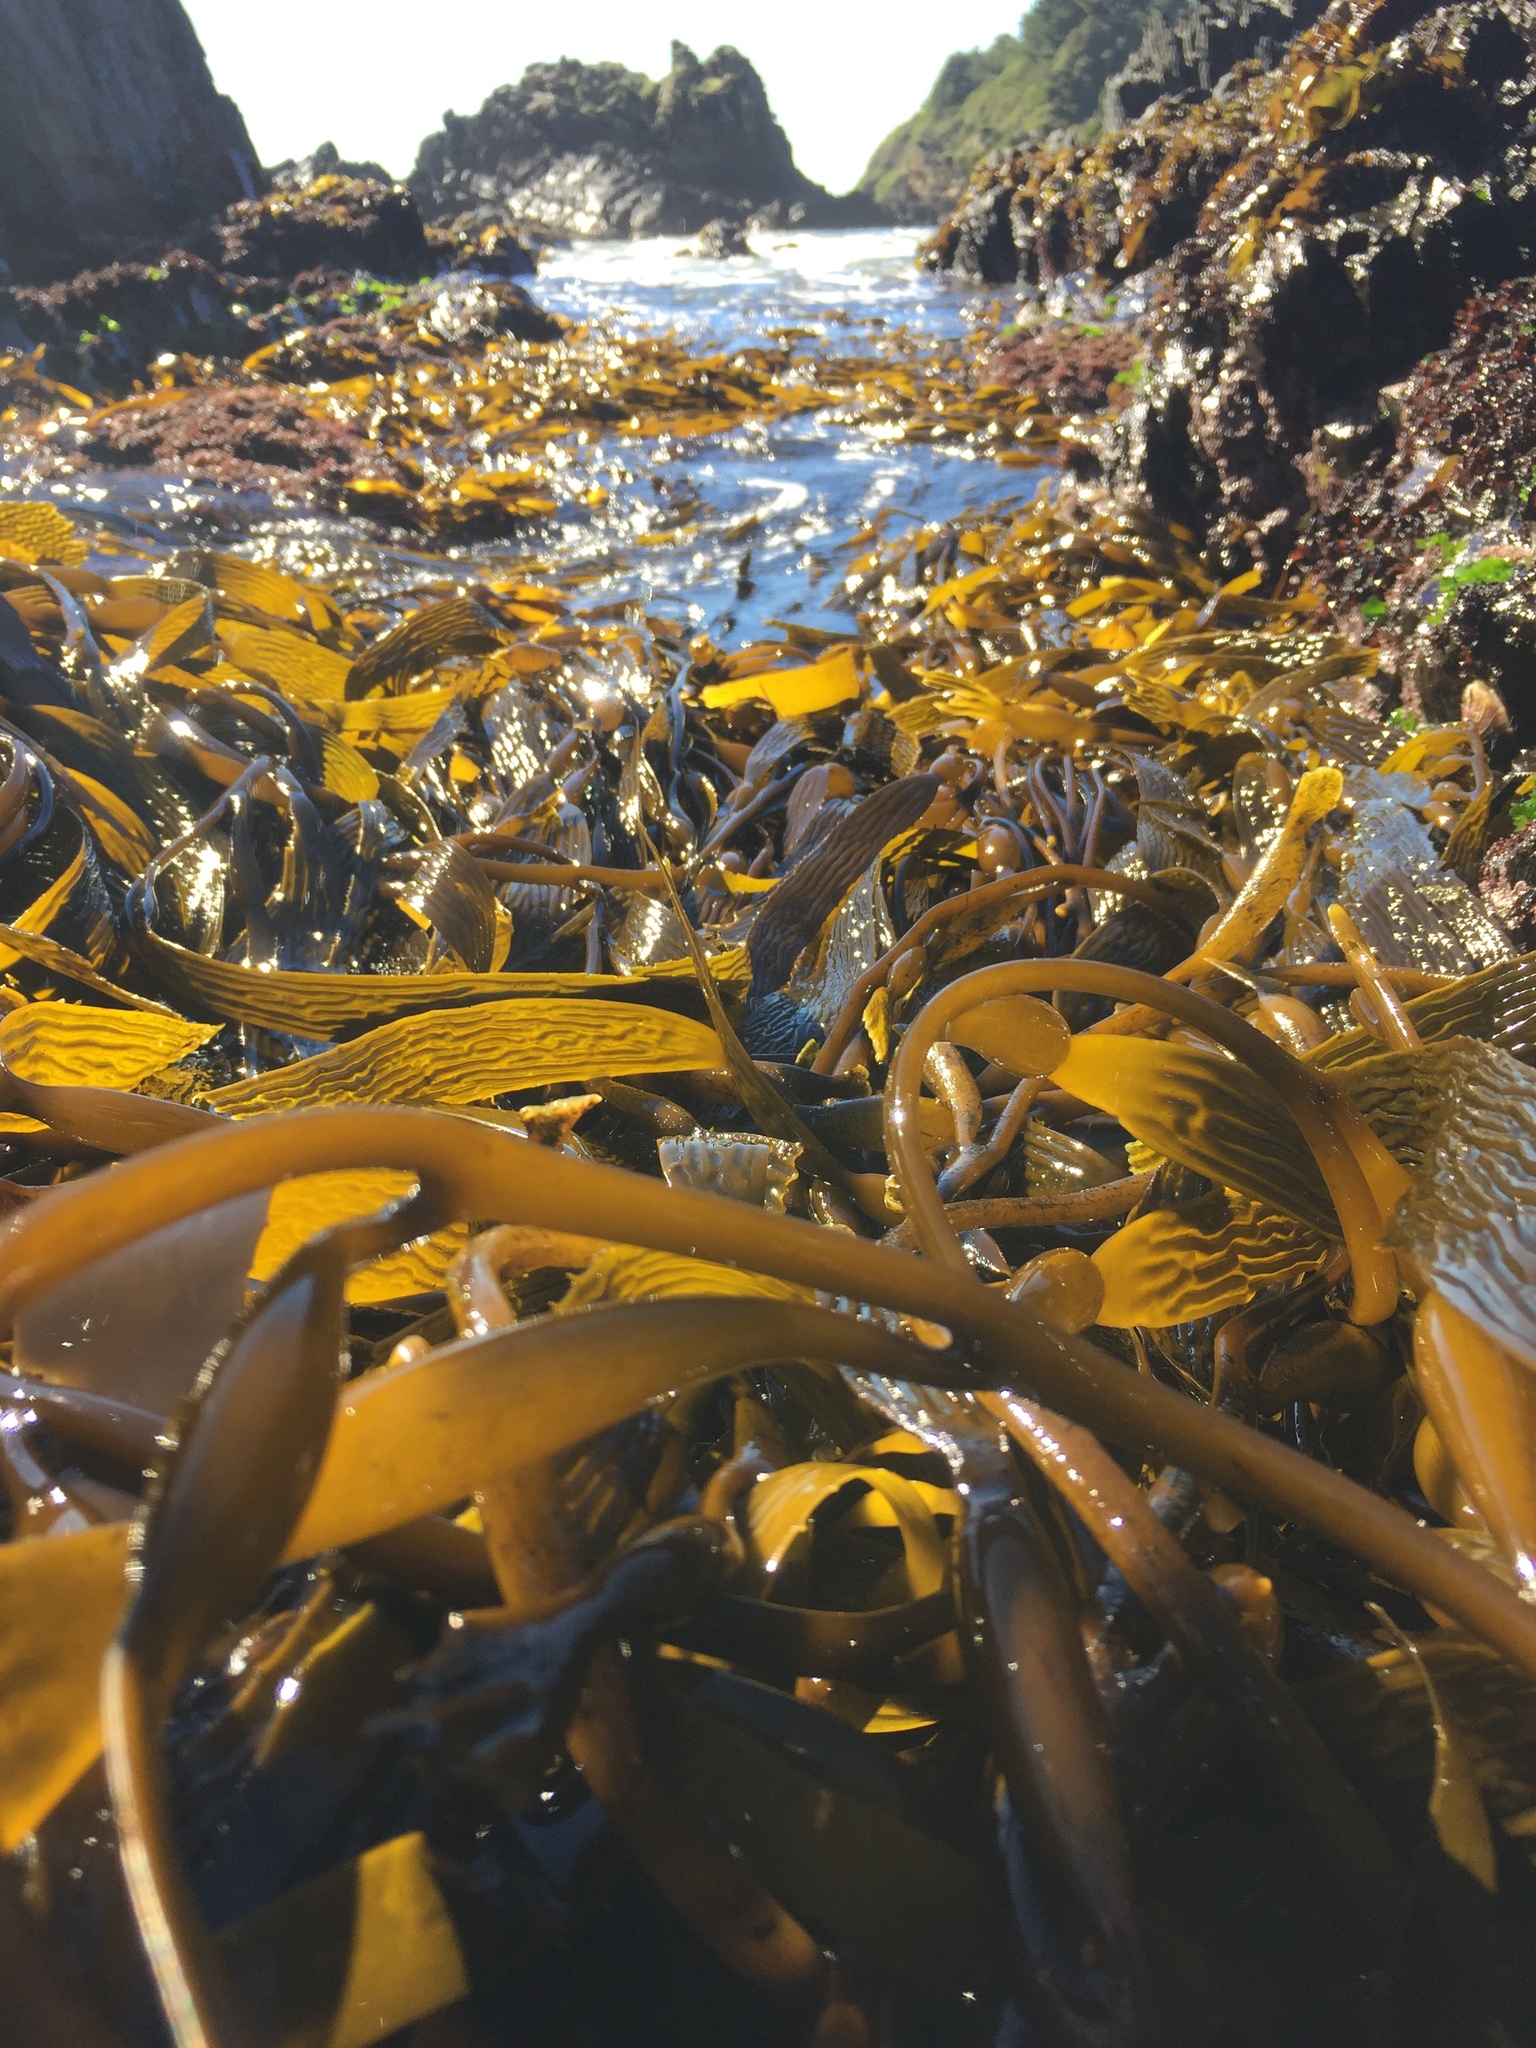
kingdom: Chromista
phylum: Ochrophyta
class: Phaeophyceae
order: Laminariales
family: Laminariaceae
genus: Macrocystis
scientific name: Macrocystis pyrifera
